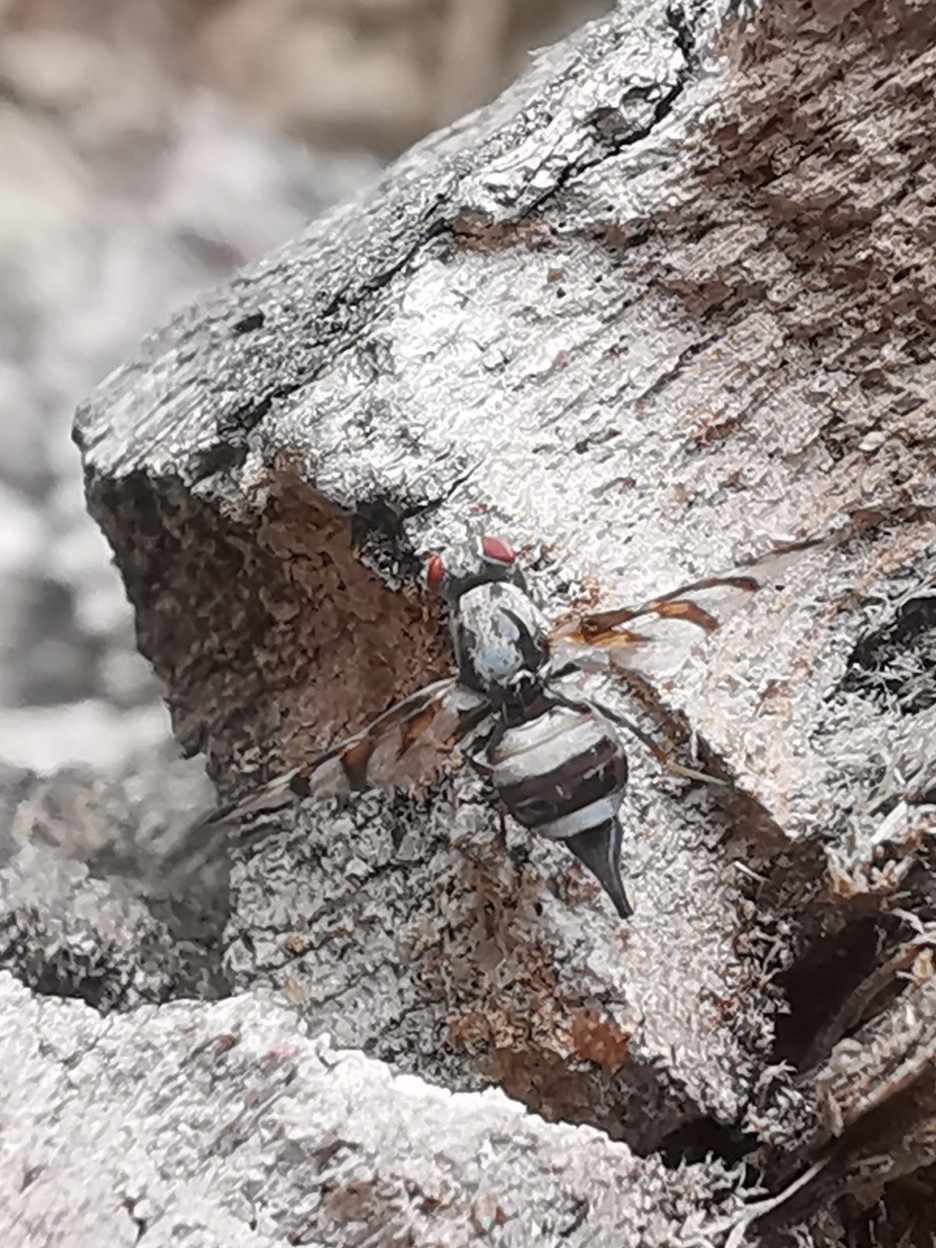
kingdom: Animalia
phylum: Arthropoda
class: Insecta
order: Diptera
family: Ulidiidae
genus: Myennis
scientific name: Myennis octopunctata
